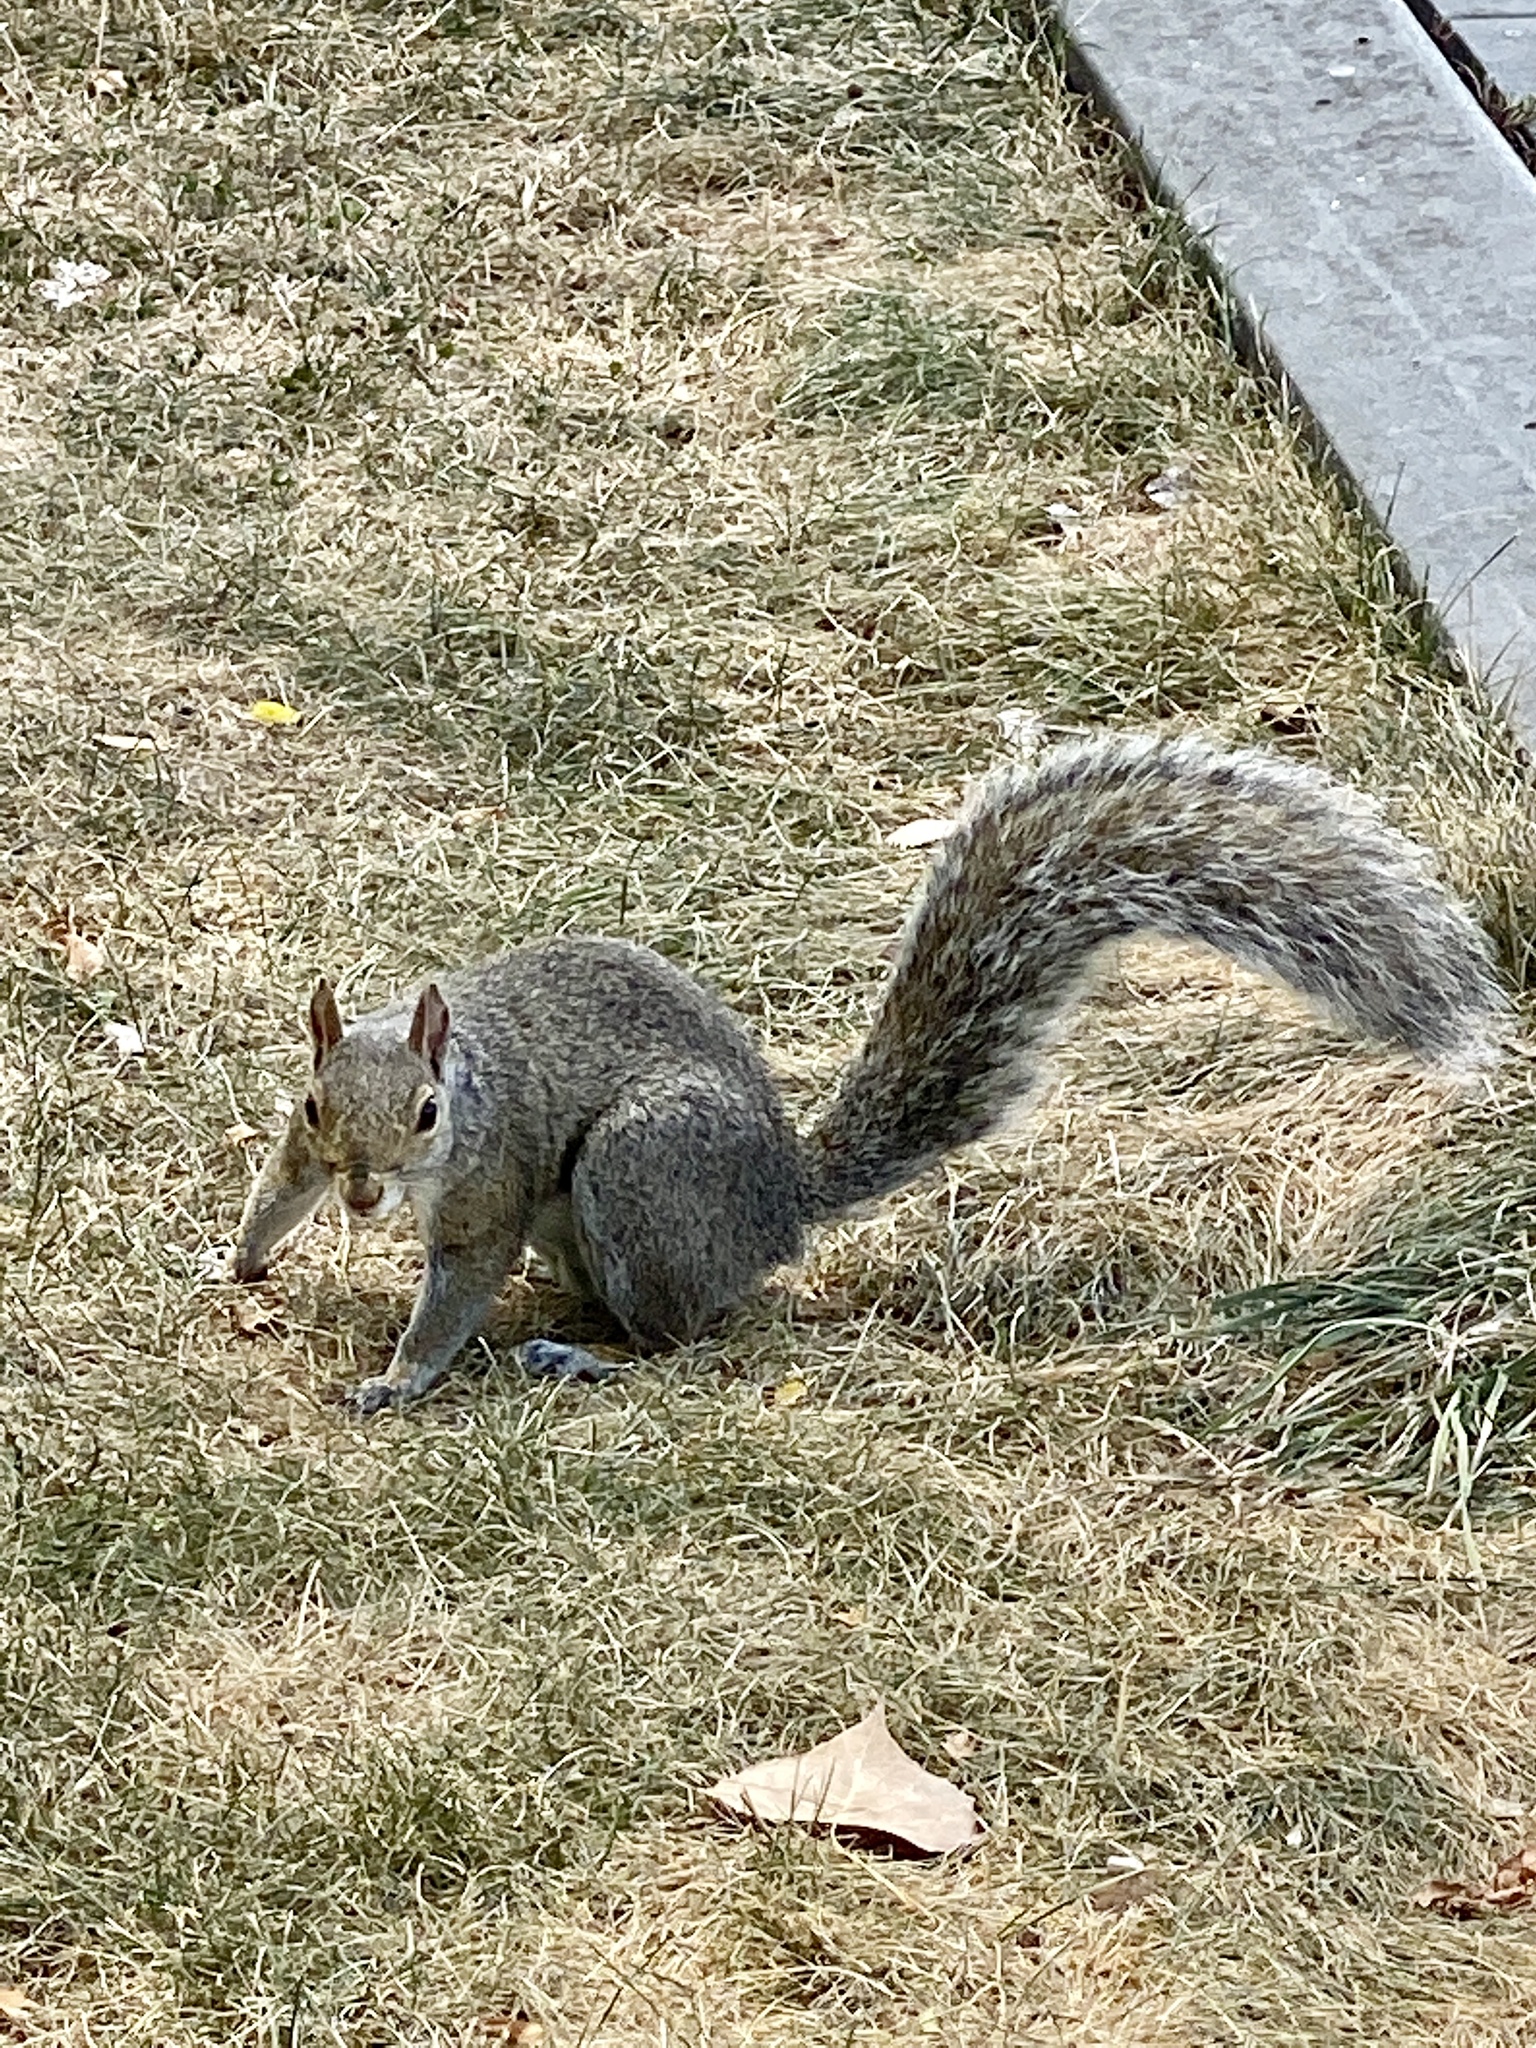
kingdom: Animalia
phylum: Chordata
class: Mammalia
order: Rodentia
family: Sciuridae
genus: Sciurus
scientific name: Sciurus carolinensis
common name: Eastern gray squirrel
